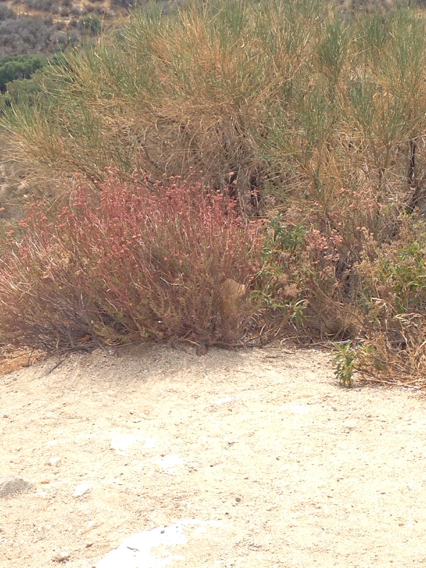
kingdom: Plantae
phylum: Tracheophyta
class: Magnoliopsida
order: Caryophyllales
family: Polygonaceae
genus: Eriogonum
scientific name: Eriogonum fasciculatum
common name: California wild buckwheat
